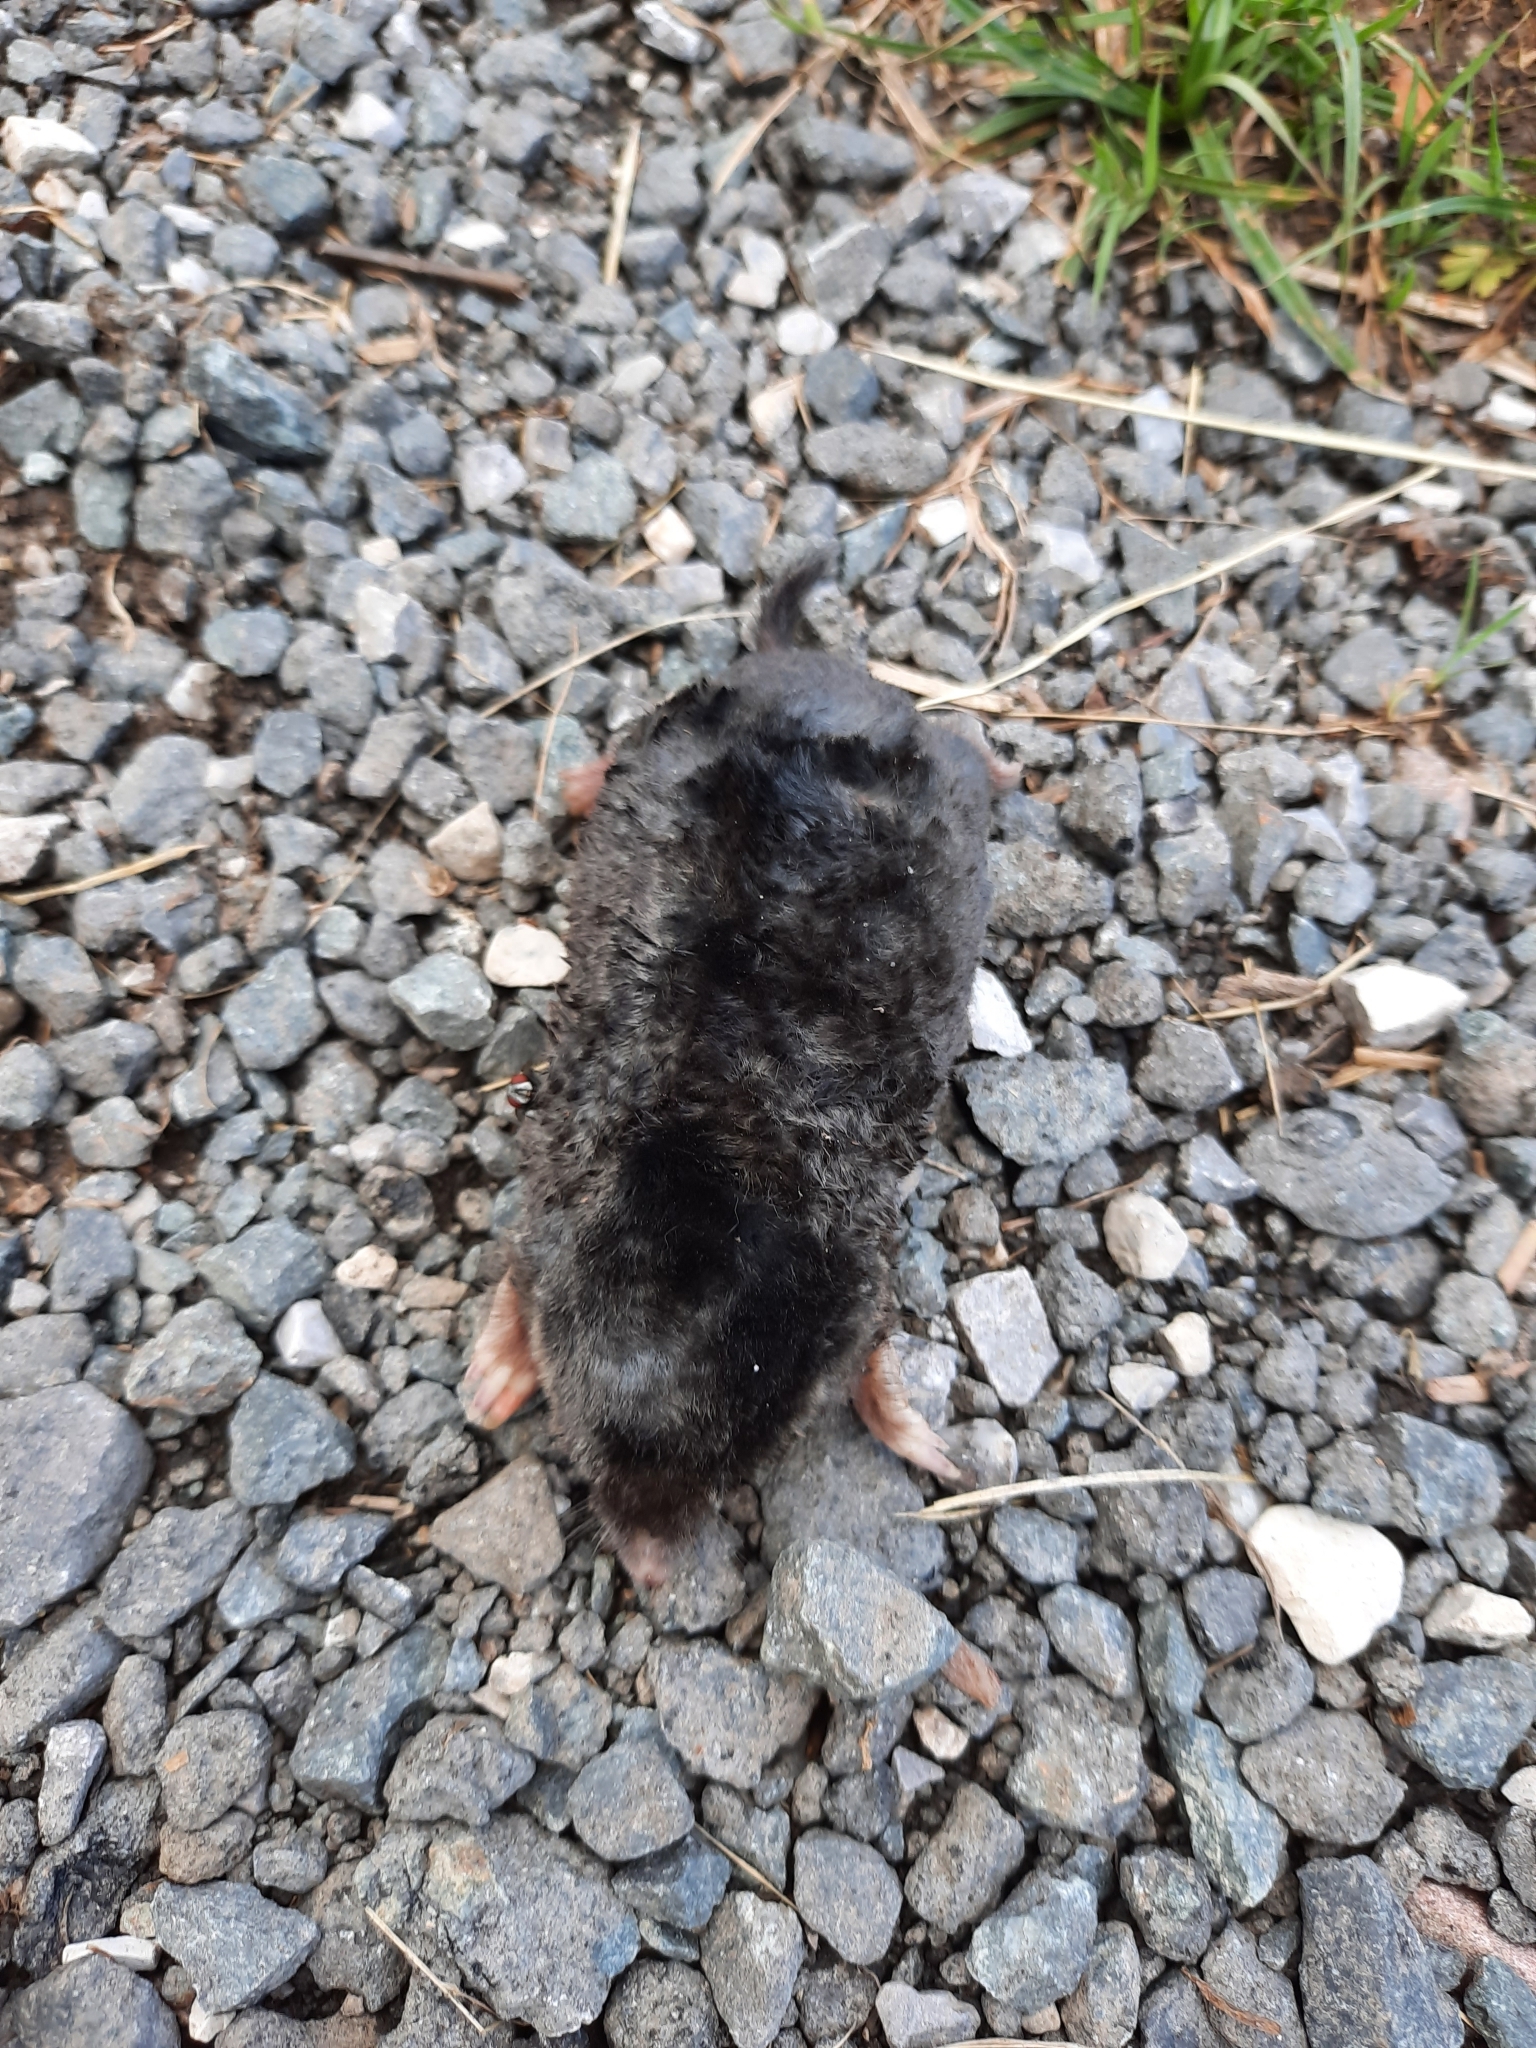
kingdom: Animalia
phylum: Chordata
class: Mammalia
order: Soricomorpha
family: Talpidae
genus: Talpa
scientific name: Talpa europaea
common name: European mole
